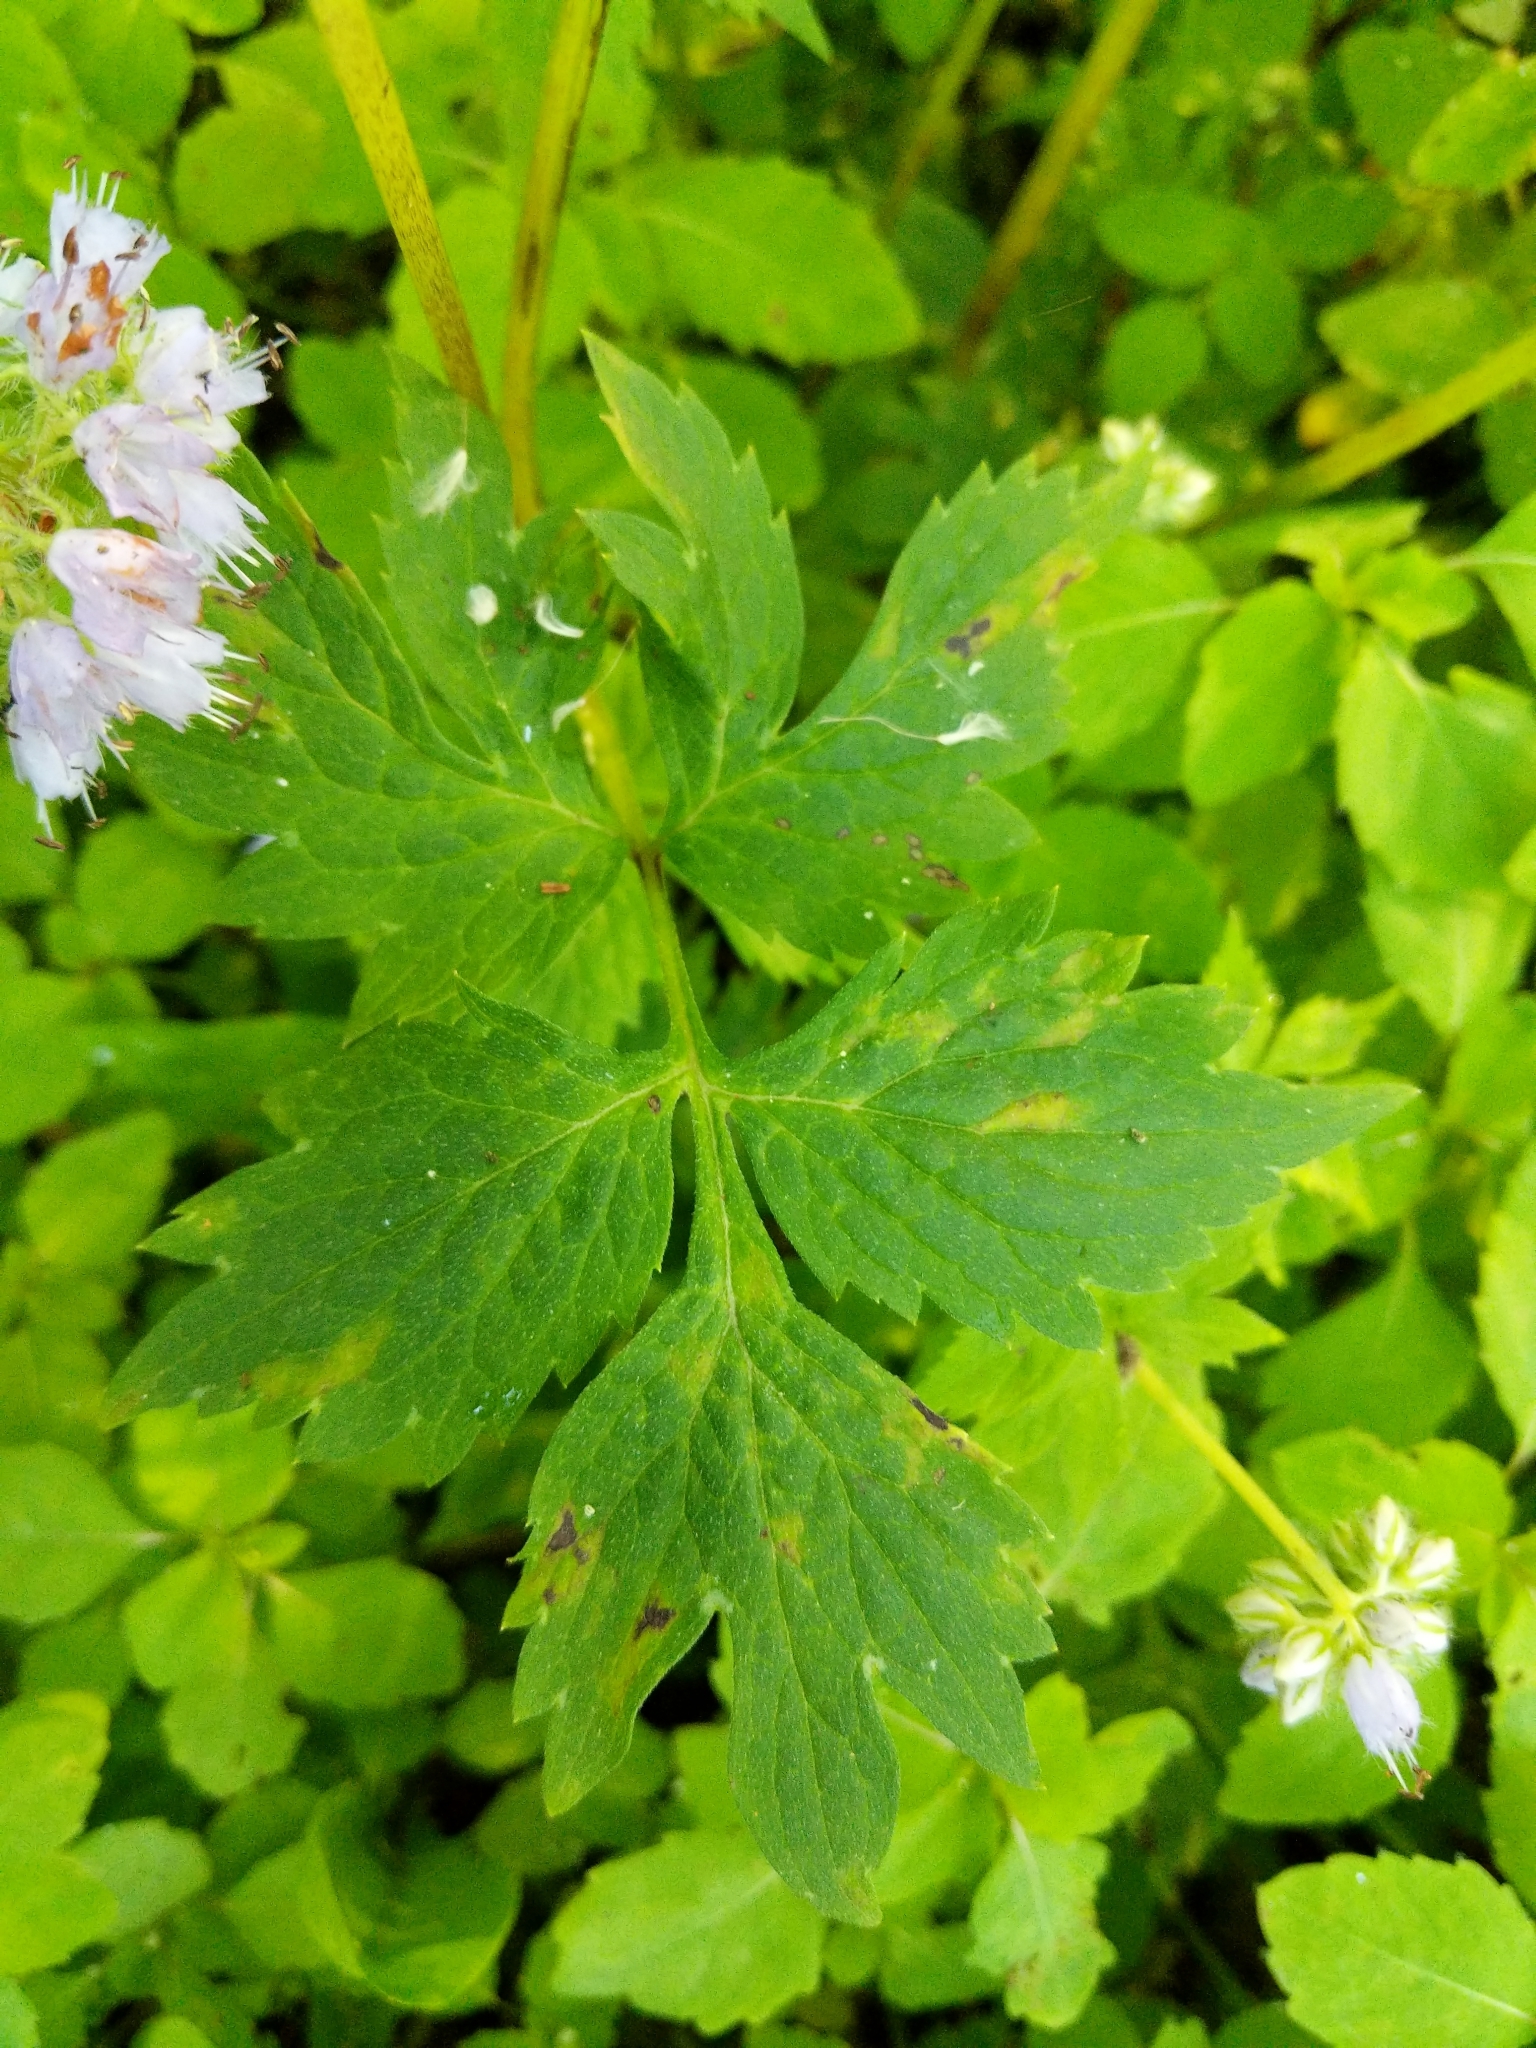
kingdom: Plantae
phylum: Tracheophyta
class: Magnoliopsida
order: Boraginales
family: Hydrophyllaceae
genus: Hydrophyllum
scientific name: Hydrophyllum virginianum
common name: Virginia waterleaf
